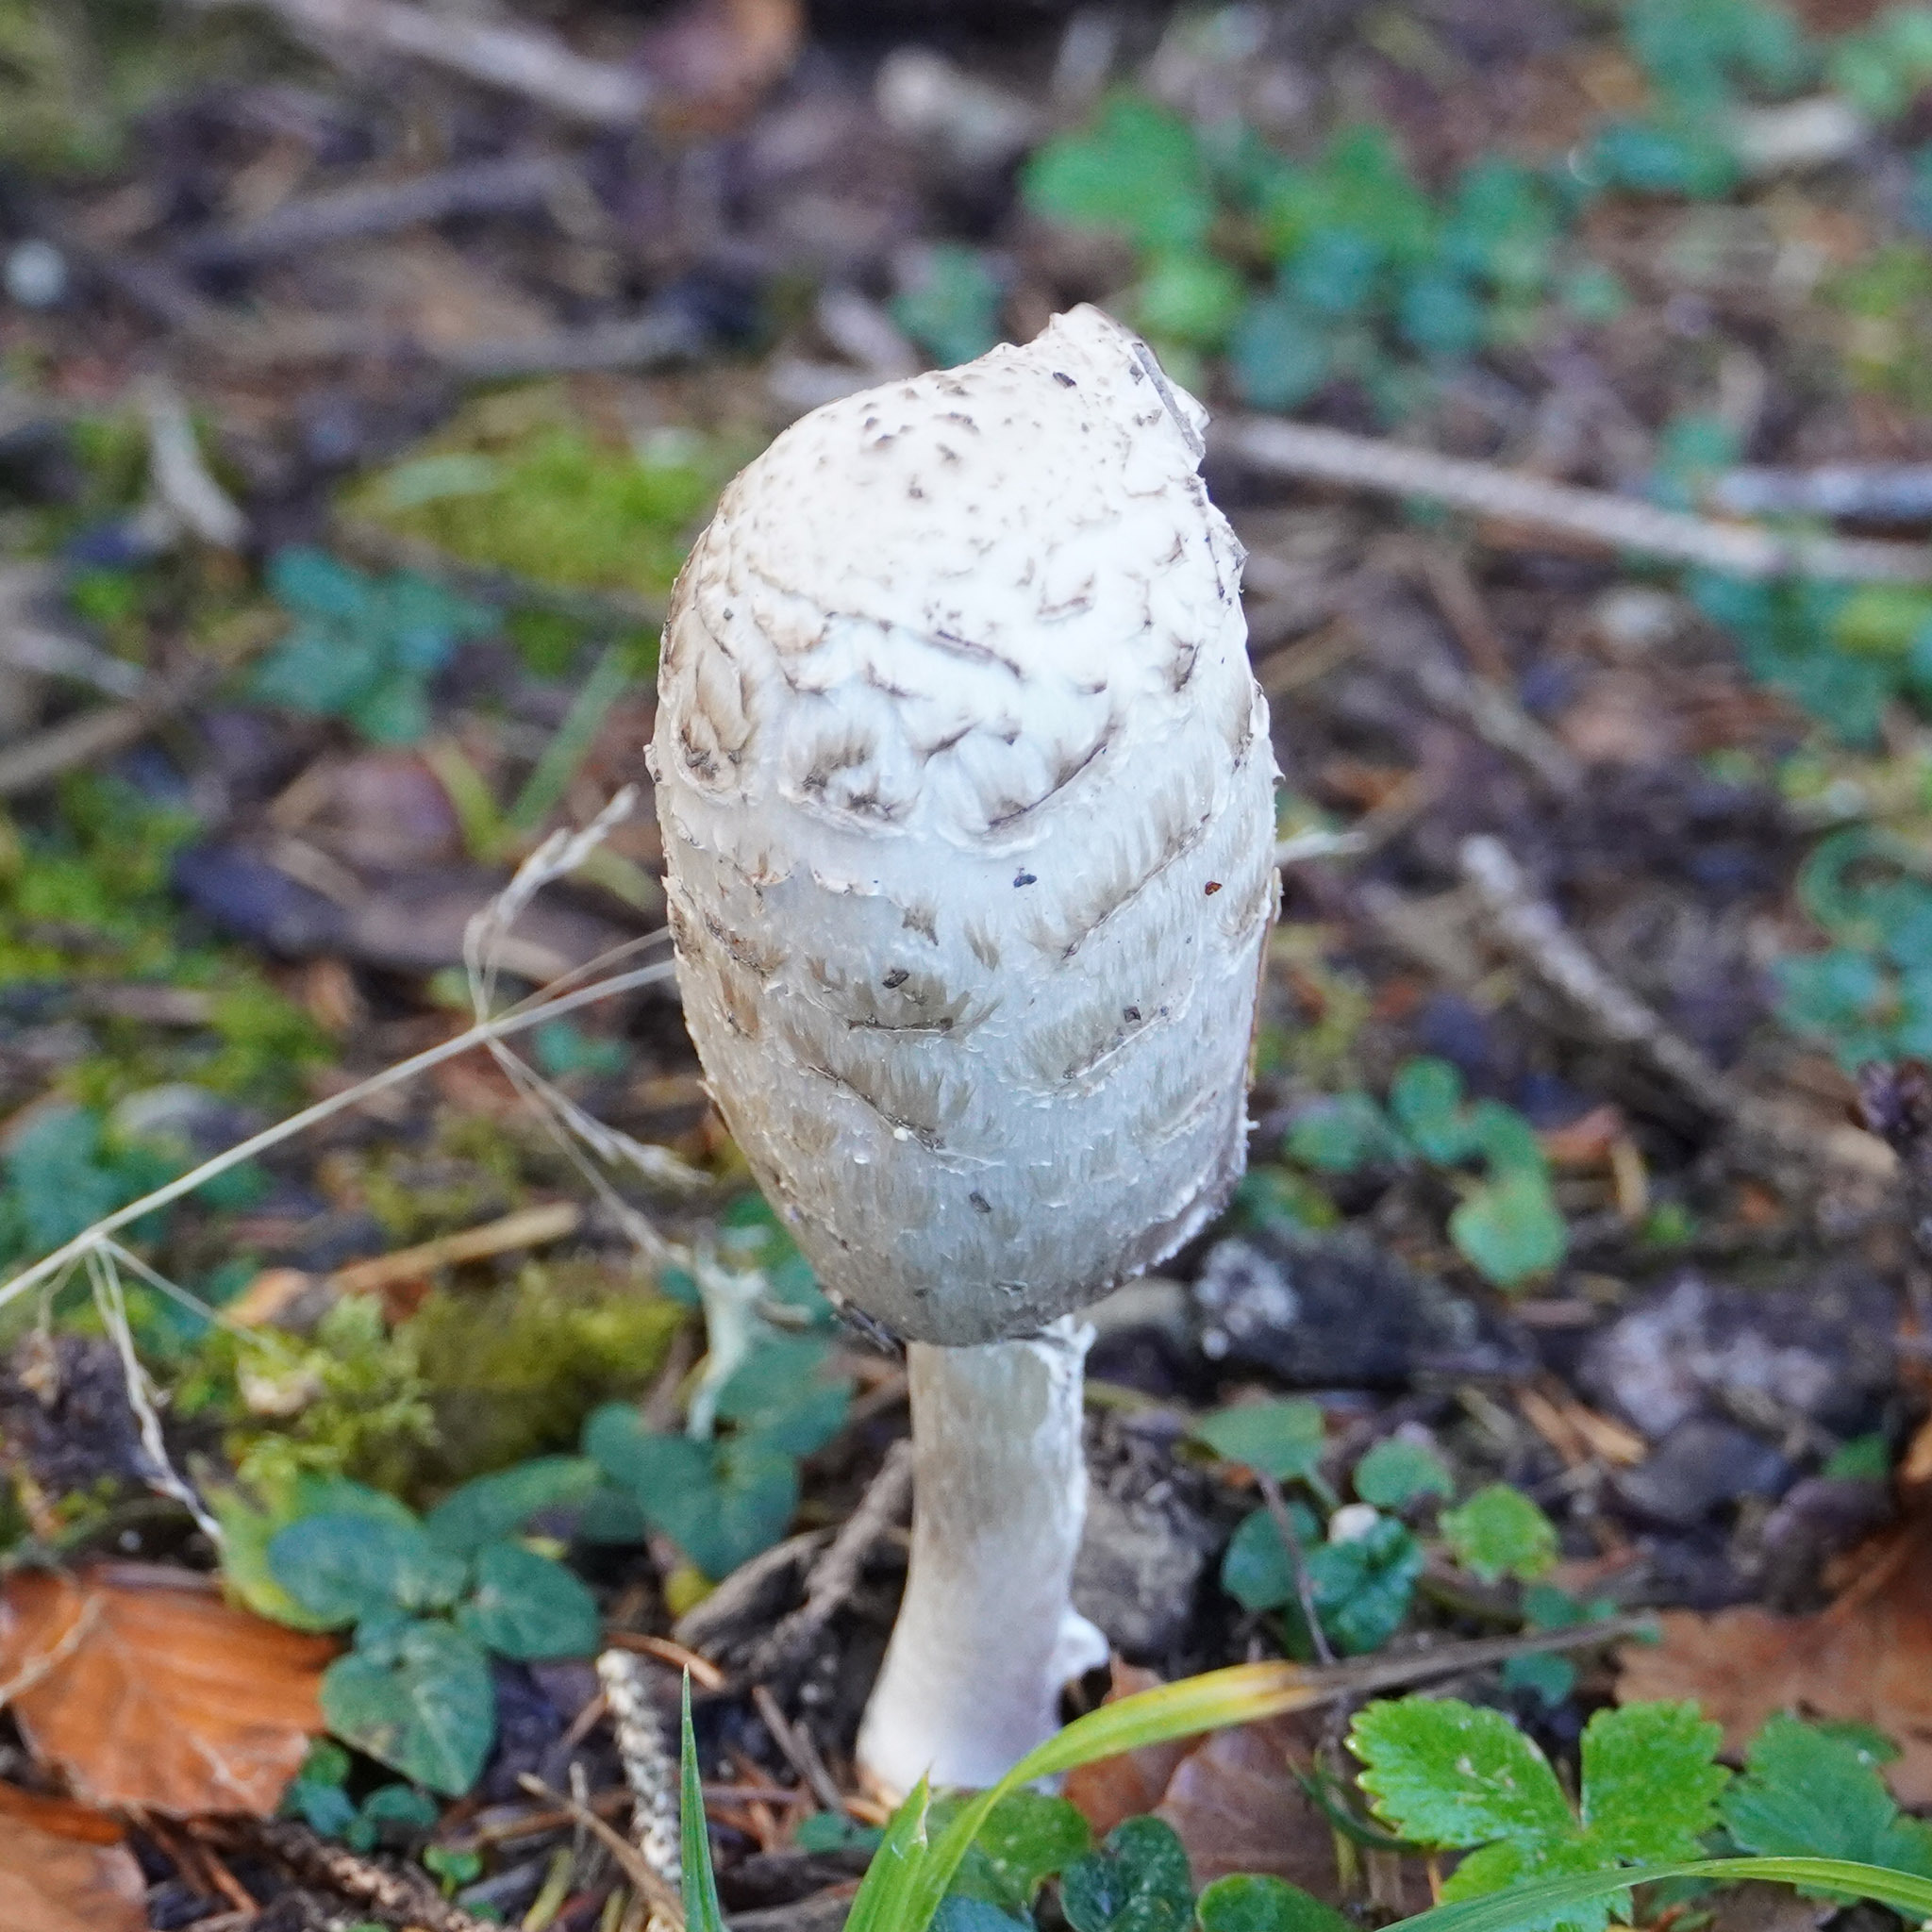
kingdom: Fungi
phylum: Basidiomycota
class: Agaricomycetes
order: Agaricales
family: Agaricaceae
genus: Coprinus
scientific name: Coprinus comatus
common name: Lawyer's wig
